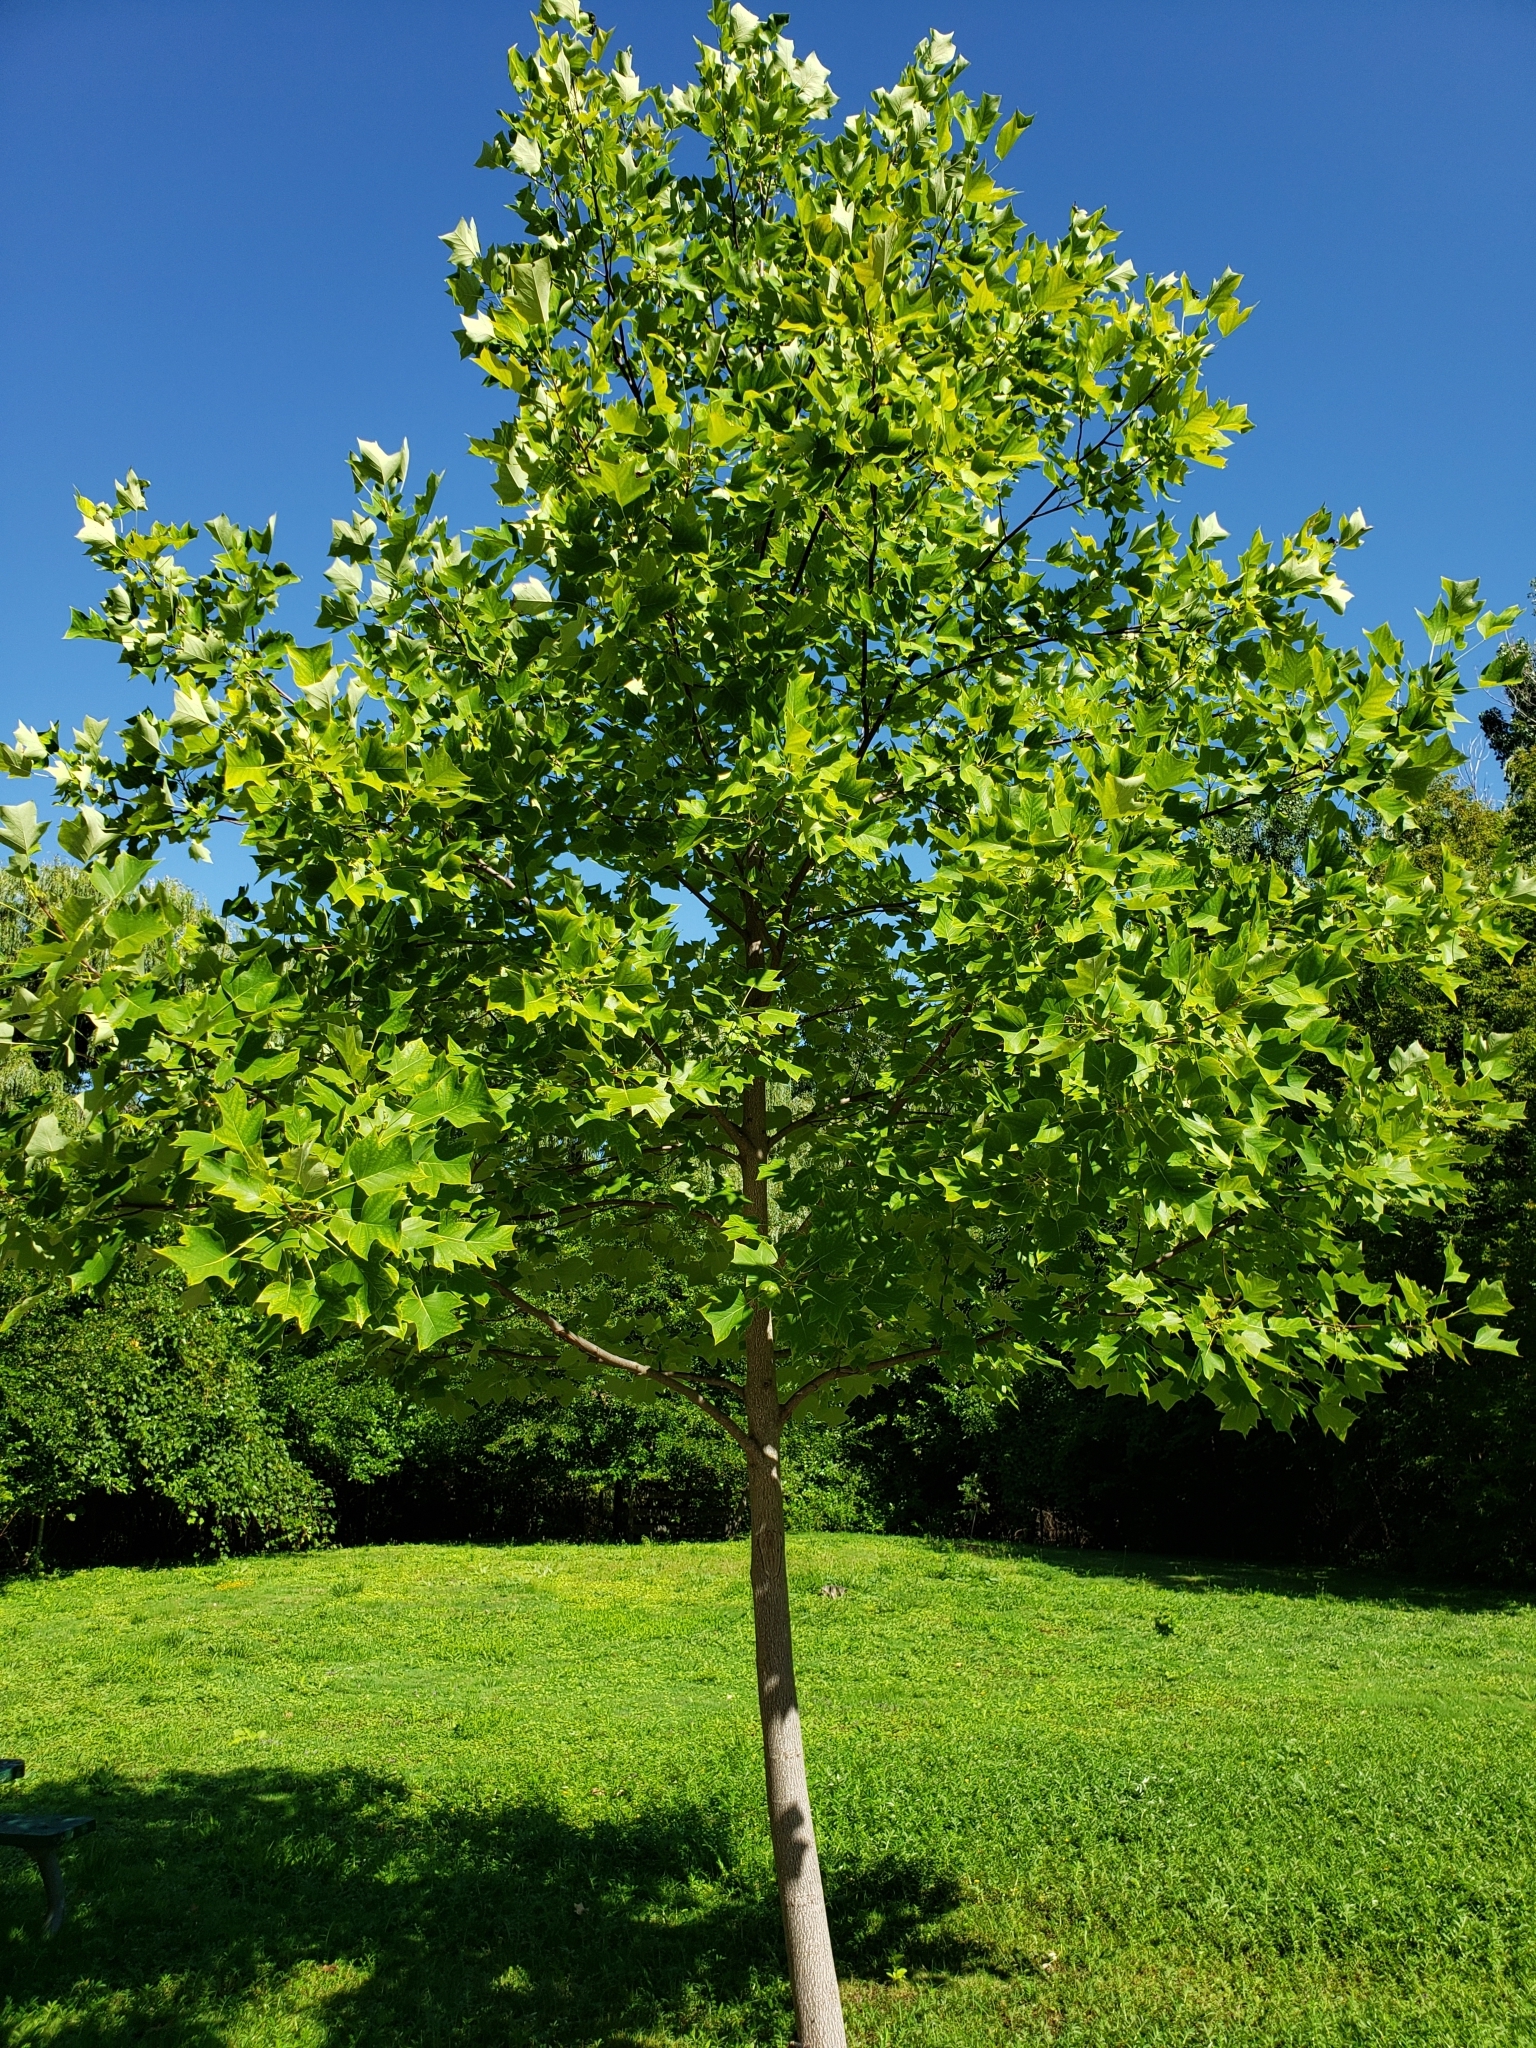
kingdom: Plantae
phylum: Tracheophyta
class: Magnoliopsida
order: Magnoliales
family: Magnoliaceae
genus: Liriodendron
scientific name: Liriodendron tulipifera
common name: Tulip tree
